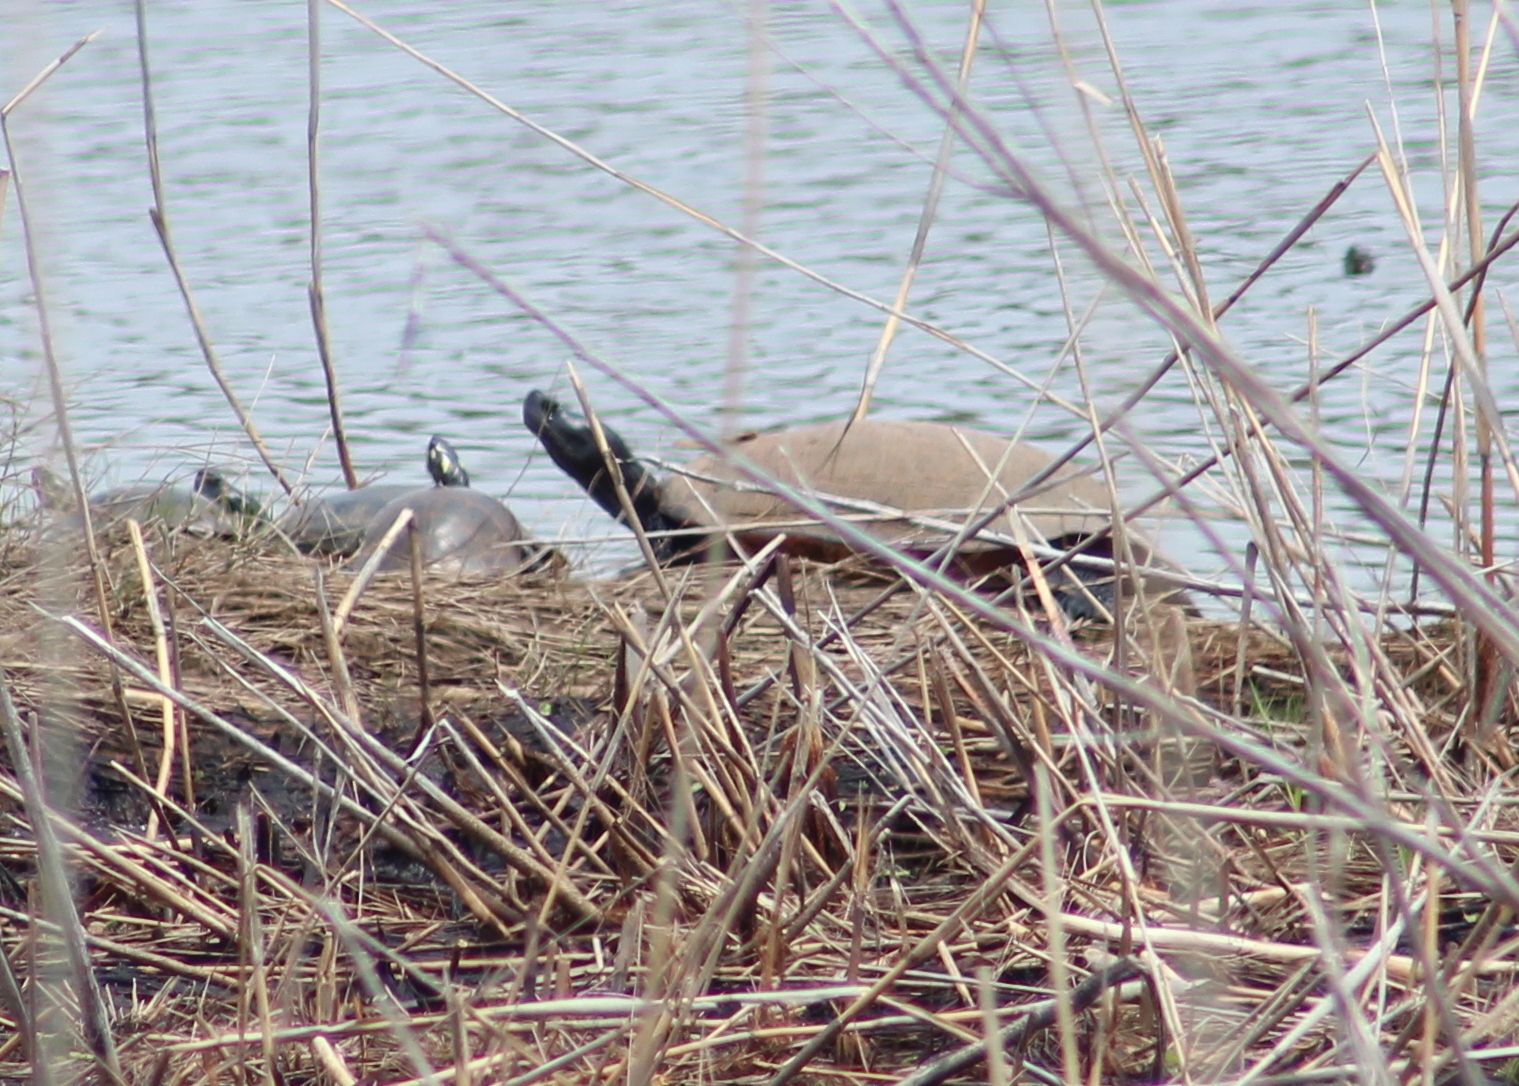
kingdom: Animalia
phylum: Chordata
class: Testudines
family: Emydidae
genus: Pseudemys
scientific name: Pseudemys rubriventris
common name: American red-bellied turtle
